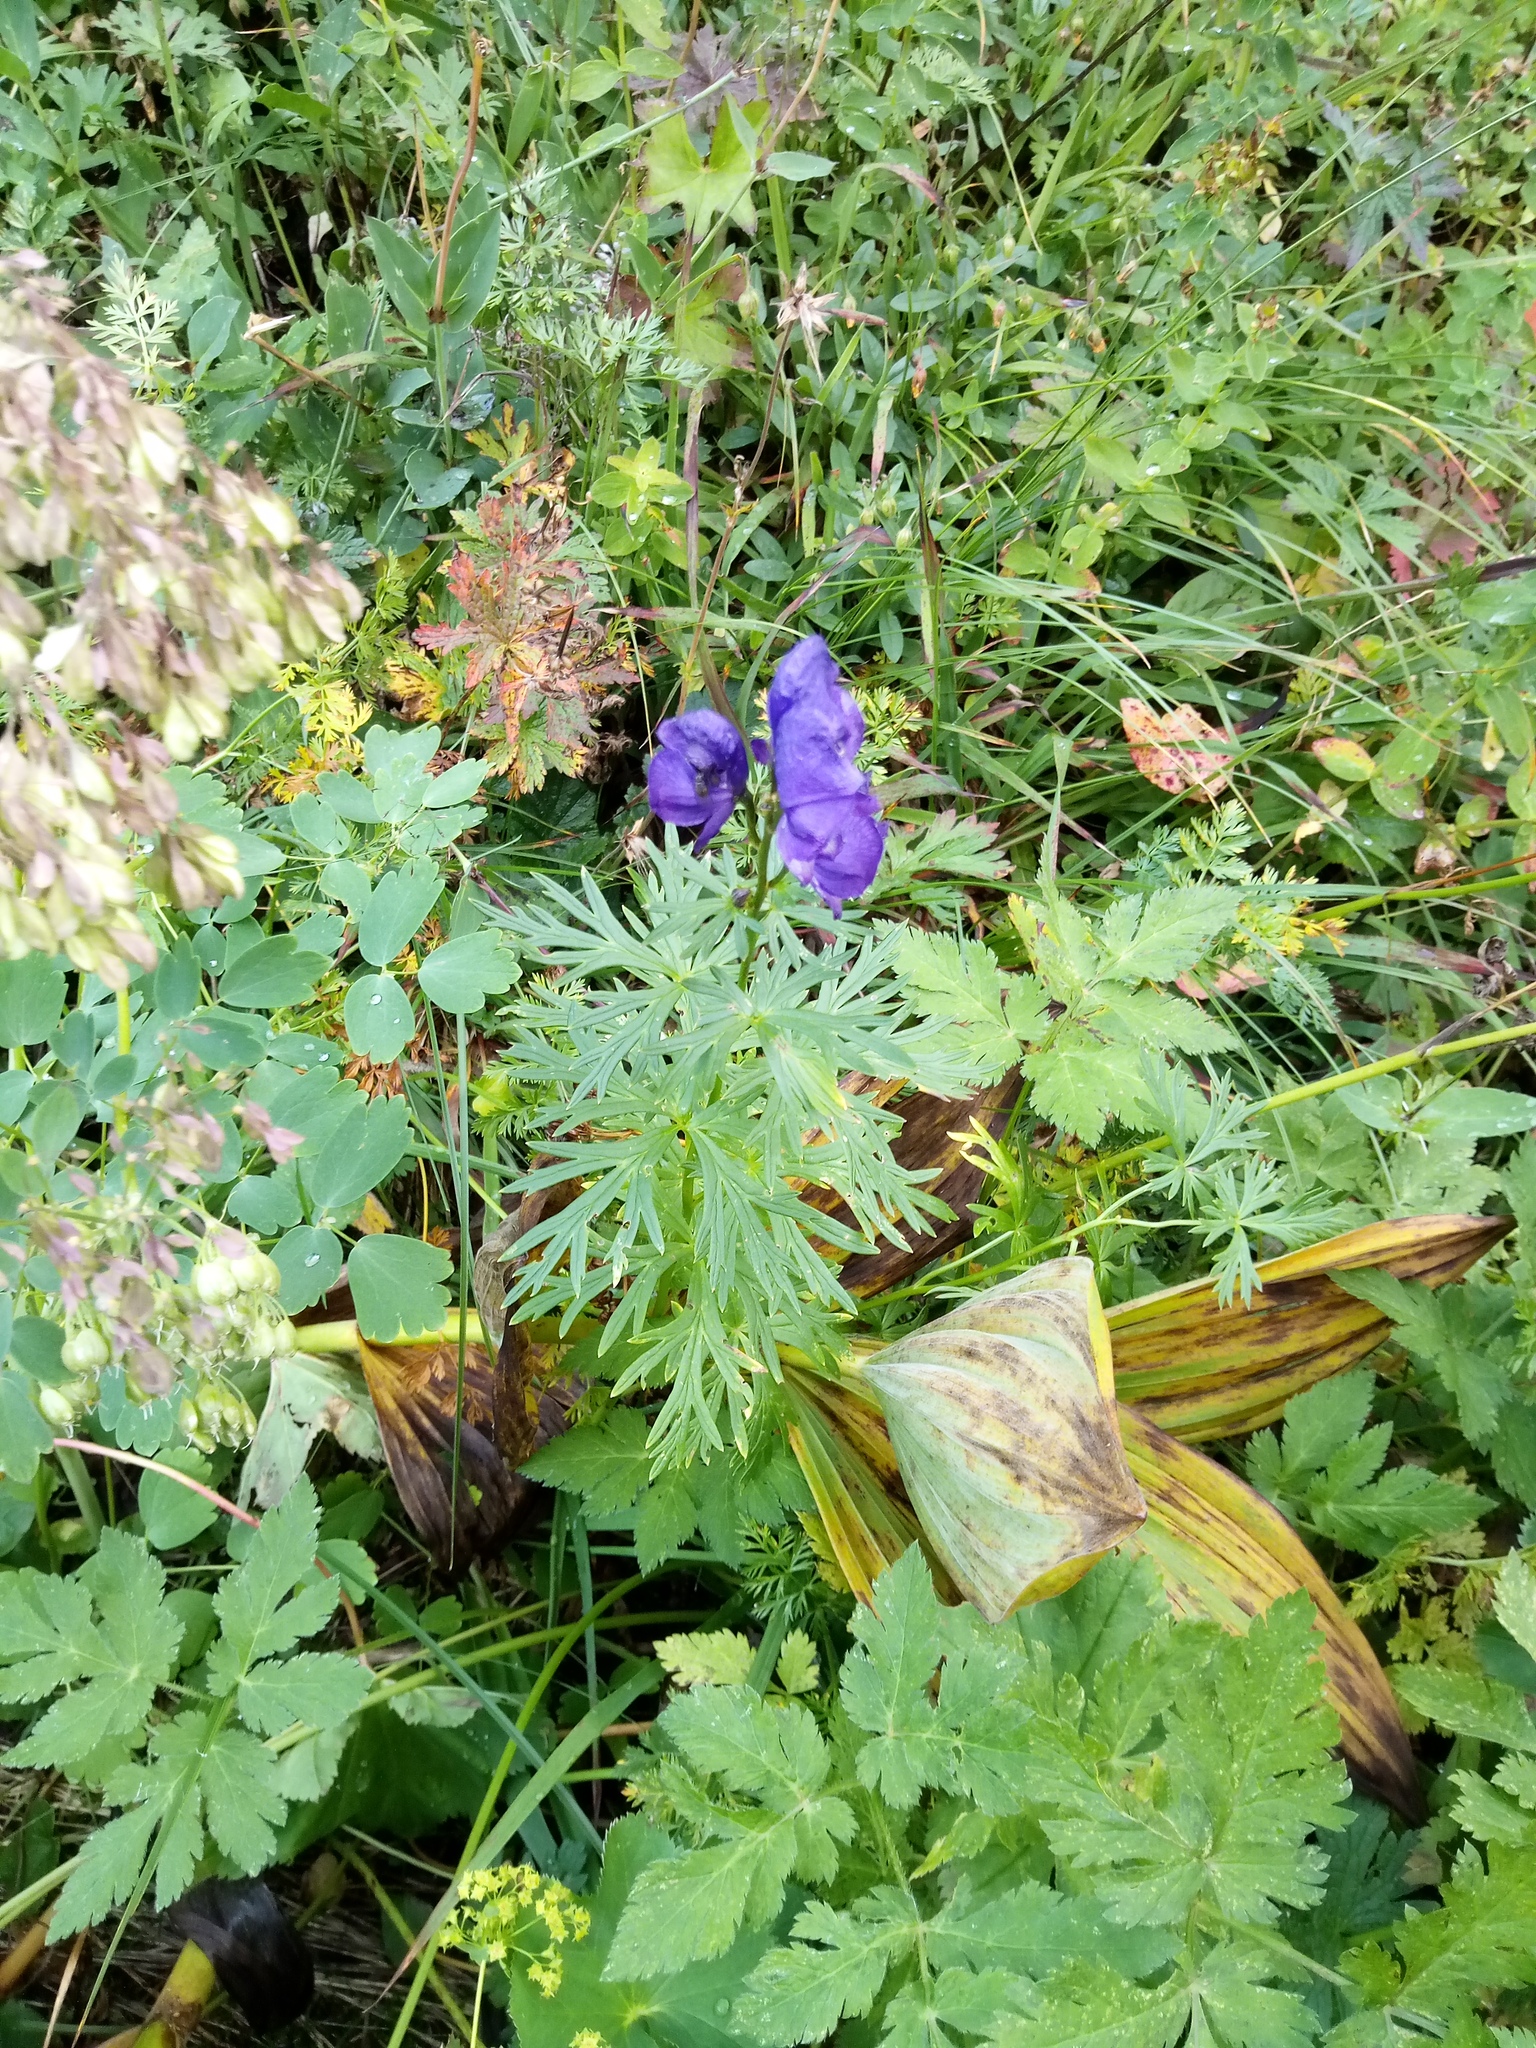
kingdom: Plantae
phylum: Tracheophyta
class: Magnoliopsida
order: Ranunculales
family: Ranunculaceae
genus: Aconitum
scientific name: Aconitum napellus
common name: Garden monkshood
